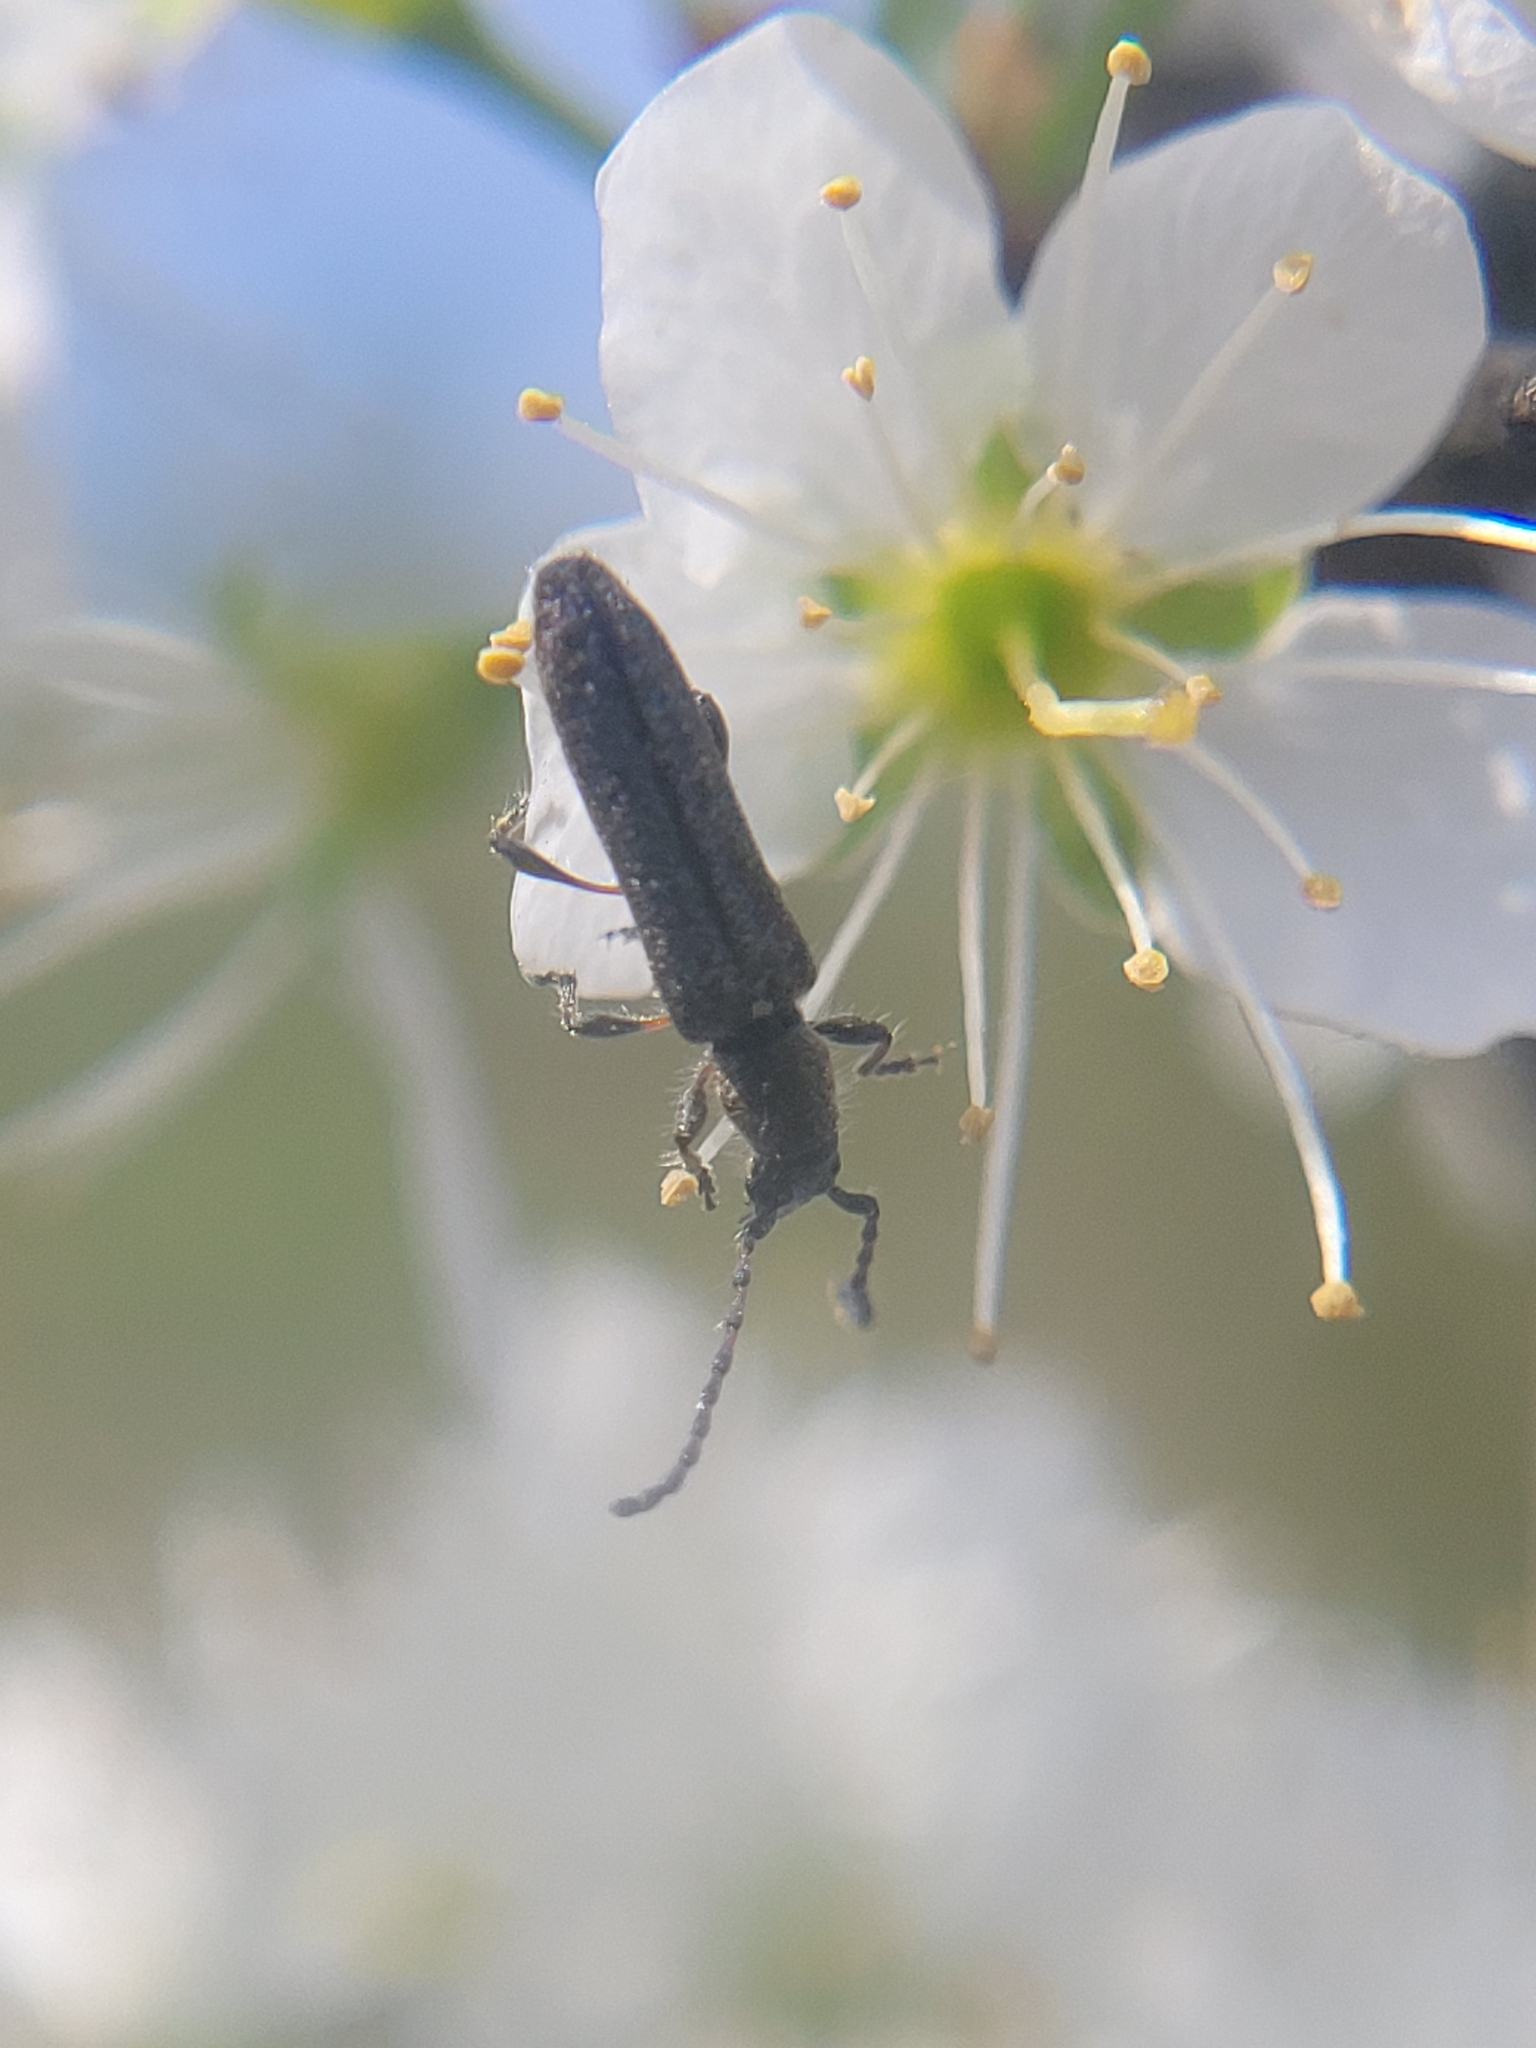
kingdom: Animalia
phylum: Arthropoda
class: Insecta
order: Coleoptera
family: Cerambycidae
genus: Deilus
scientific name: Deilus fugax
